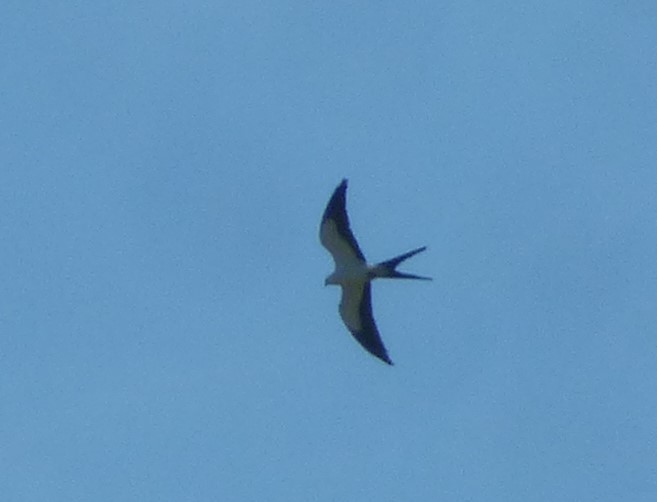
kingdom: Animalia
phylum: Chordata
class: Aves
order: Accipitriformes
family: Accipitridae
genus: Elanoides
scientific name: Elanoides forficatus
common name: Swallow-tailed kite
